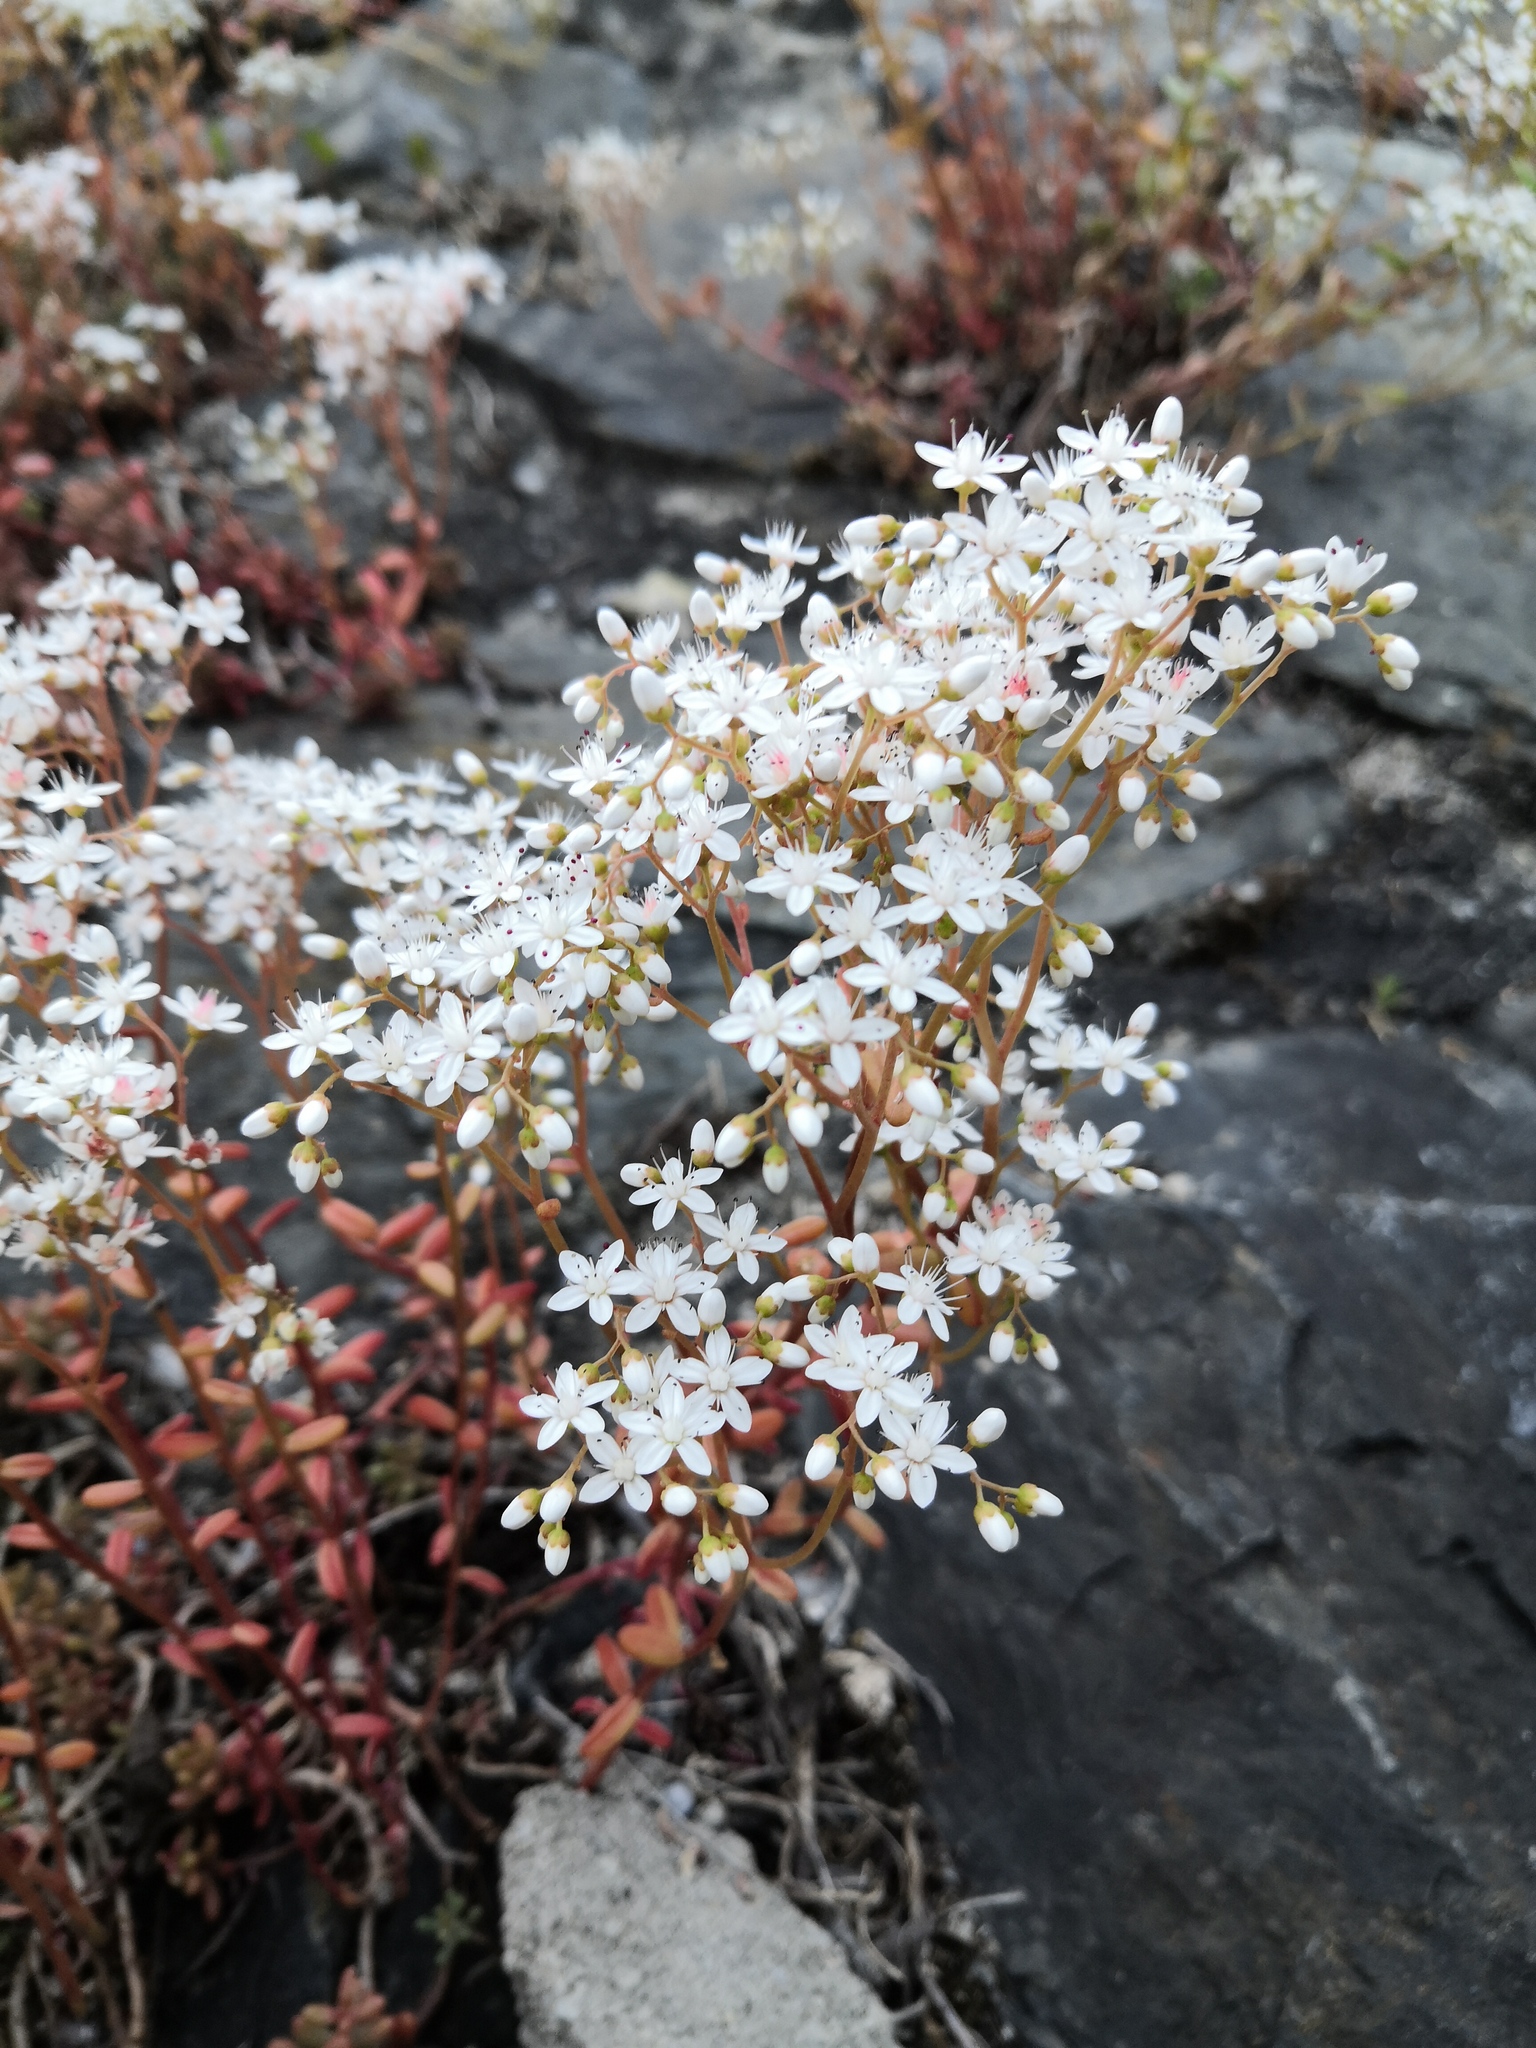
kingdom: Plantae
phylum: Tracheophyta
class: Magnoliopsida
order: Saxifragales
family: Crassulaceae
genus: Sedum
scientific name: Sedum album
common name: White stonecrop
